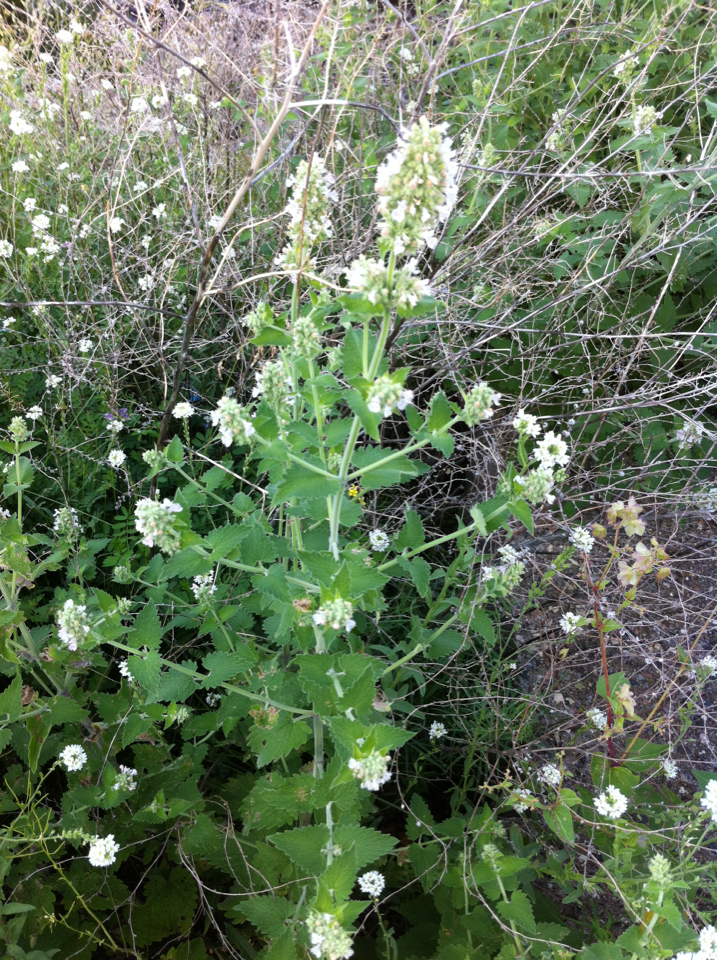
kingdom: Plantae
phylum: Tracheophyta
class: Magnoliopsida
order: Lamiales
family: Lamiaceae
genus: Nepeta
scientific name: Nepeta cataria
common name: Catnip
